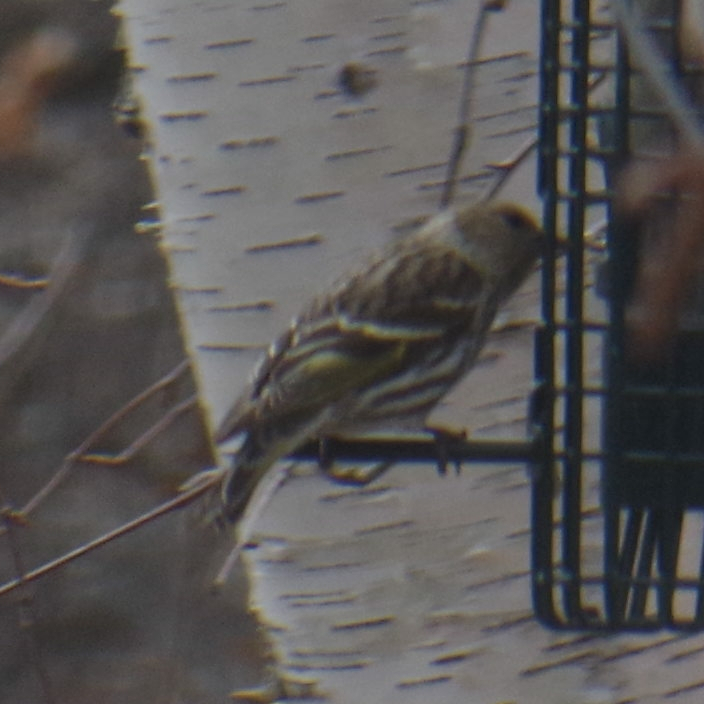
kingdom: Animalia
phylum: Chordata
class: Aves
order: Passeriformes
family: Fringillidae
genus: Spinus
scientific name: Spinus pinus
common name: Pine siskin
